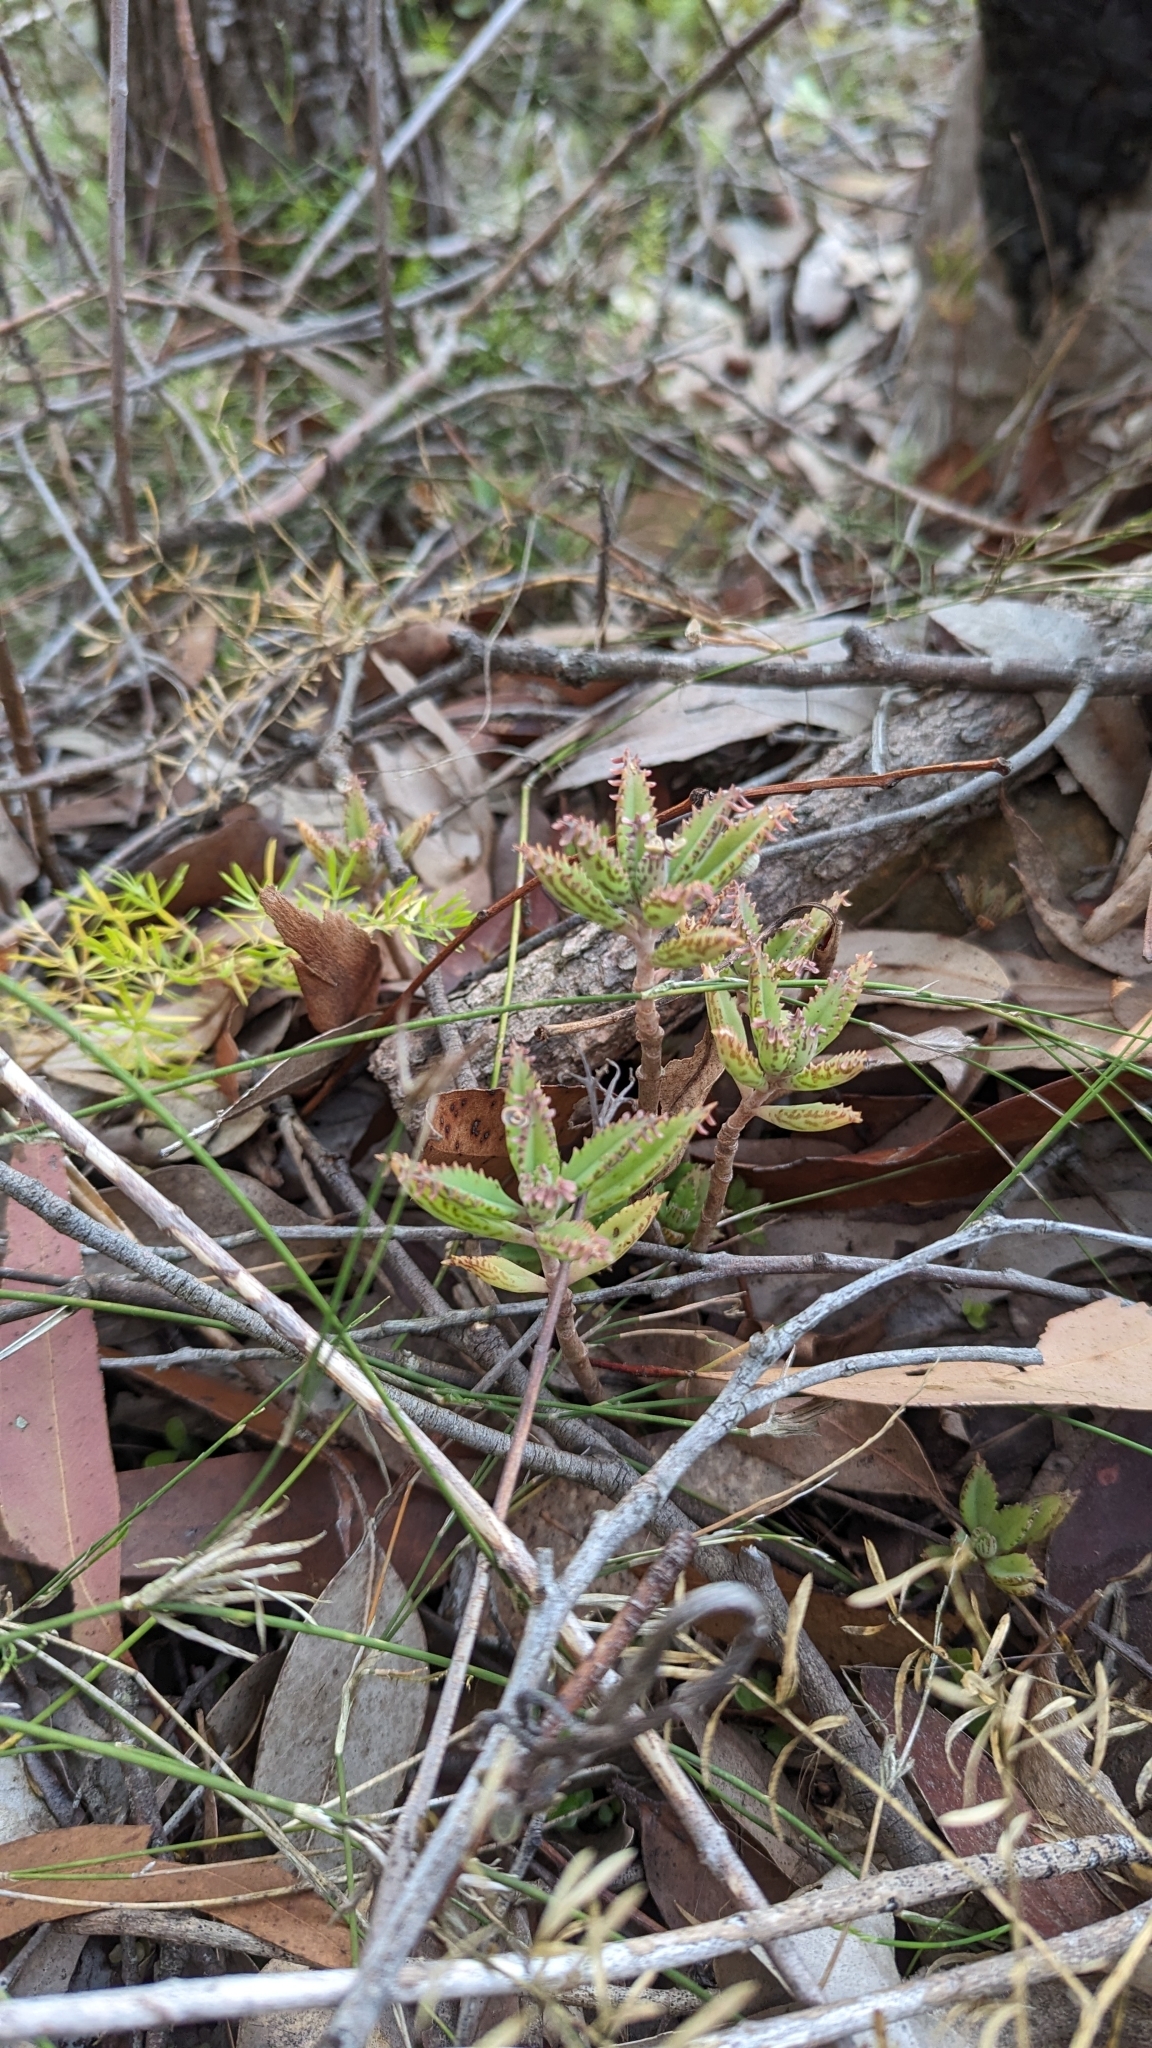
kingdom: Plantae
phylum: Tracheophyta
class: Magnoliopsida
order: Saxifragales
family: Crassulaceae
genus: Kalanchoe
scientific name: Kalanchoe houghtonii
